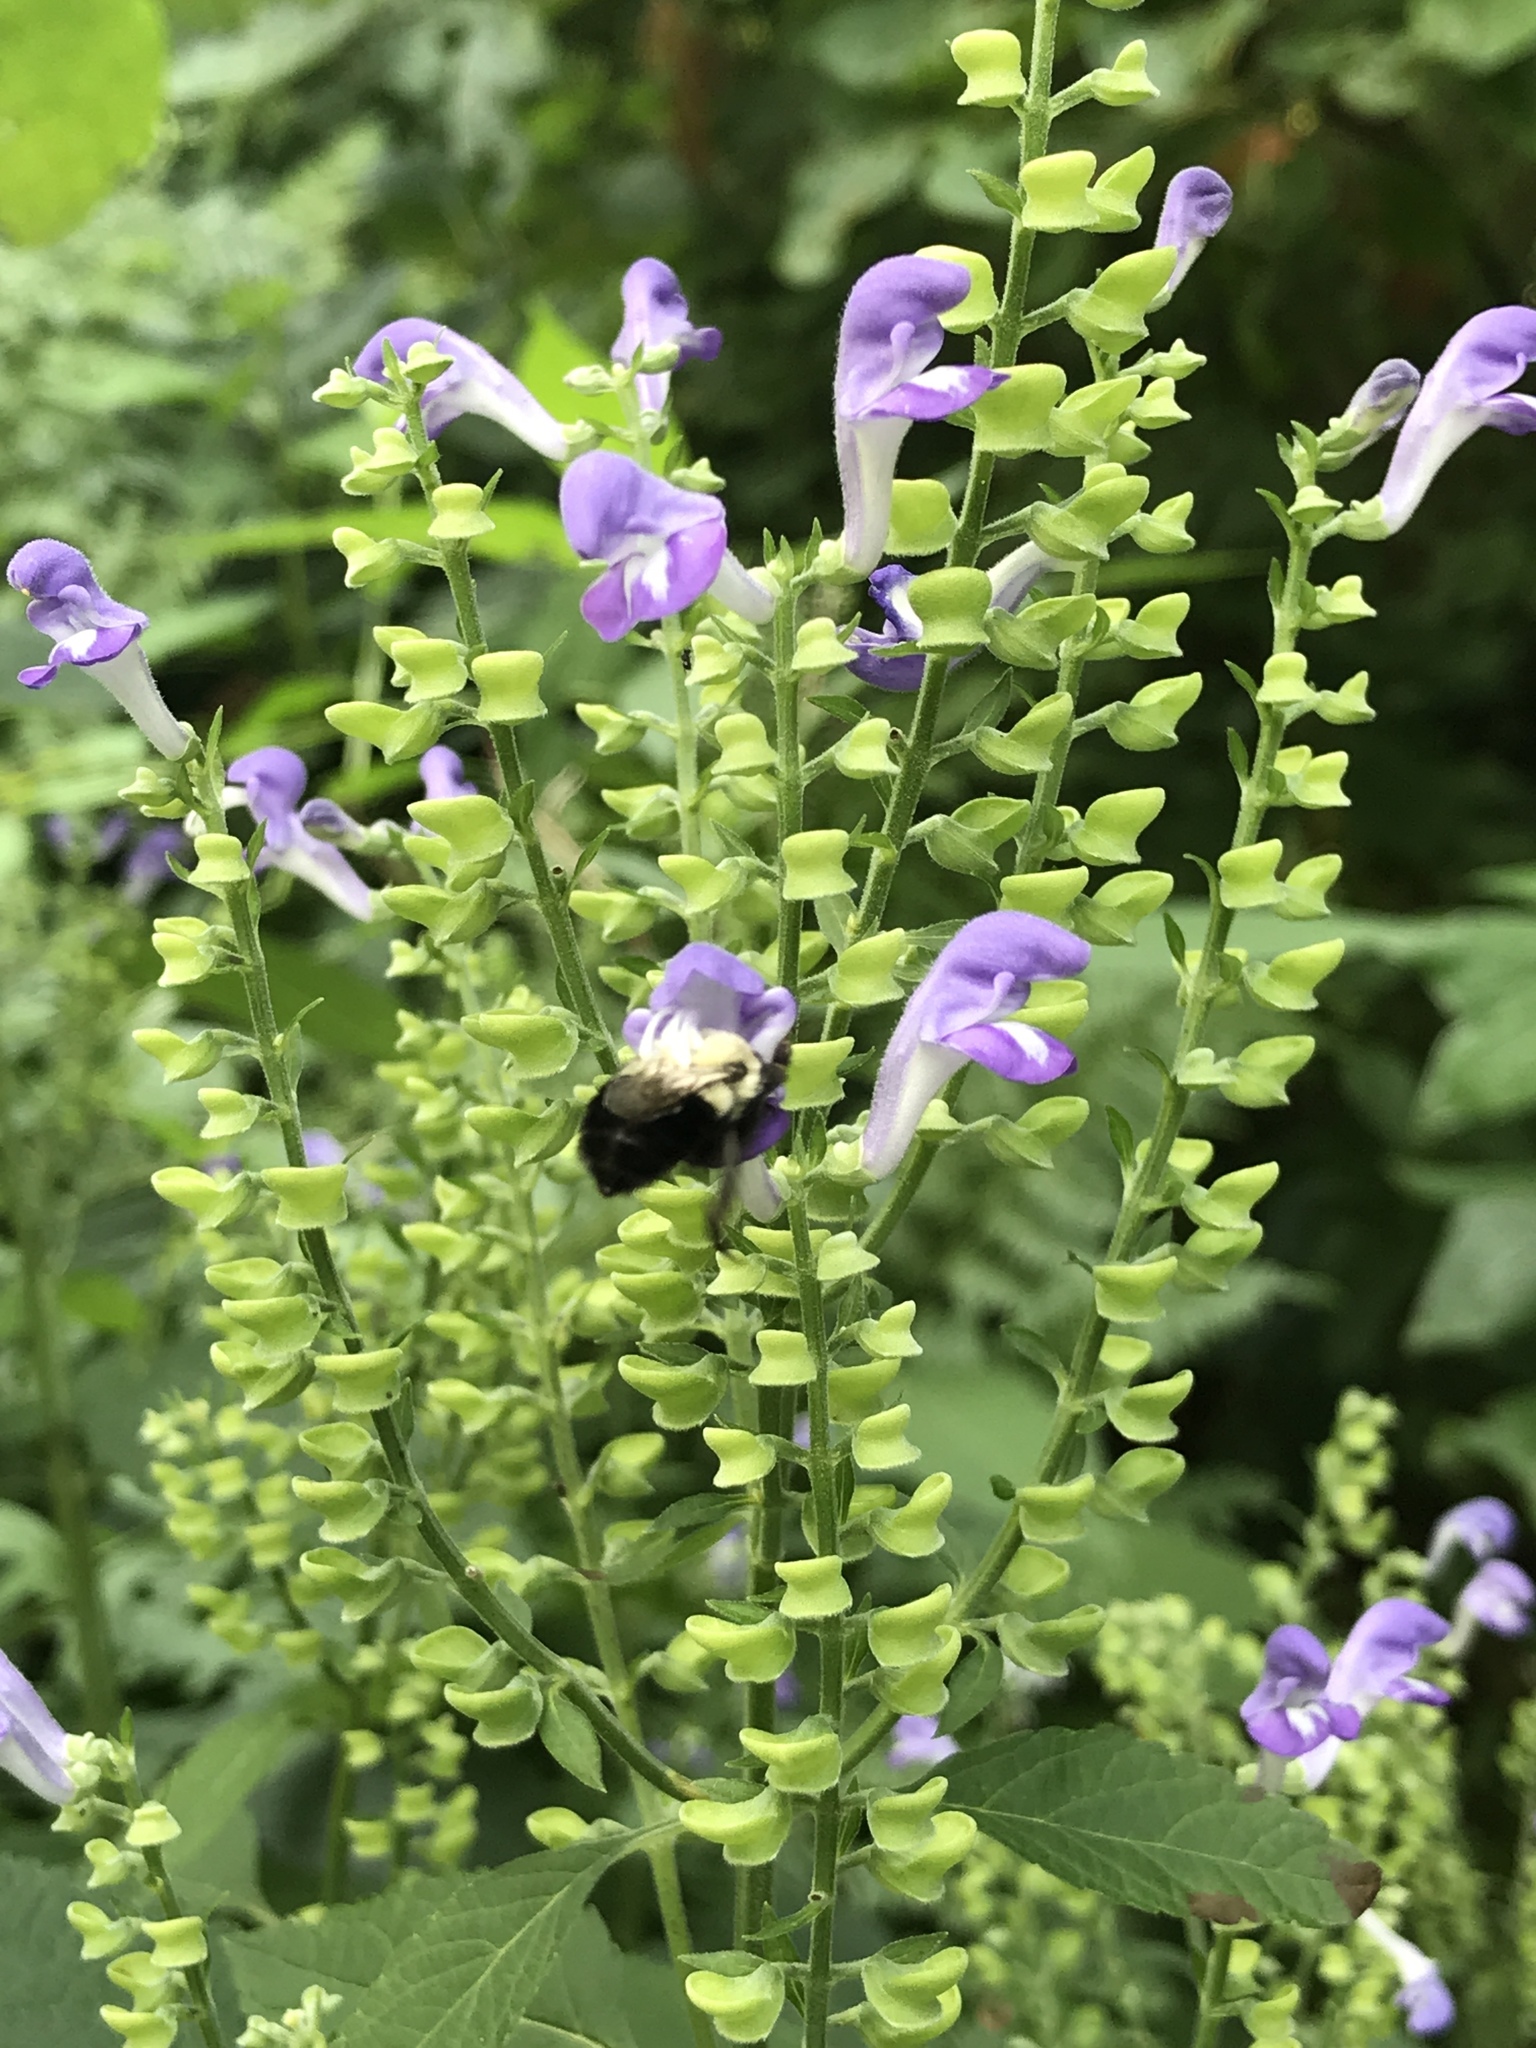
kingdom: Animalia
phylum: Arthropoda
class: Insecta
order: Hymenoptera
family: Apidae
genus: Bombus
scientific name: Bombus impatiens
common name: Common eastern bumble bee
